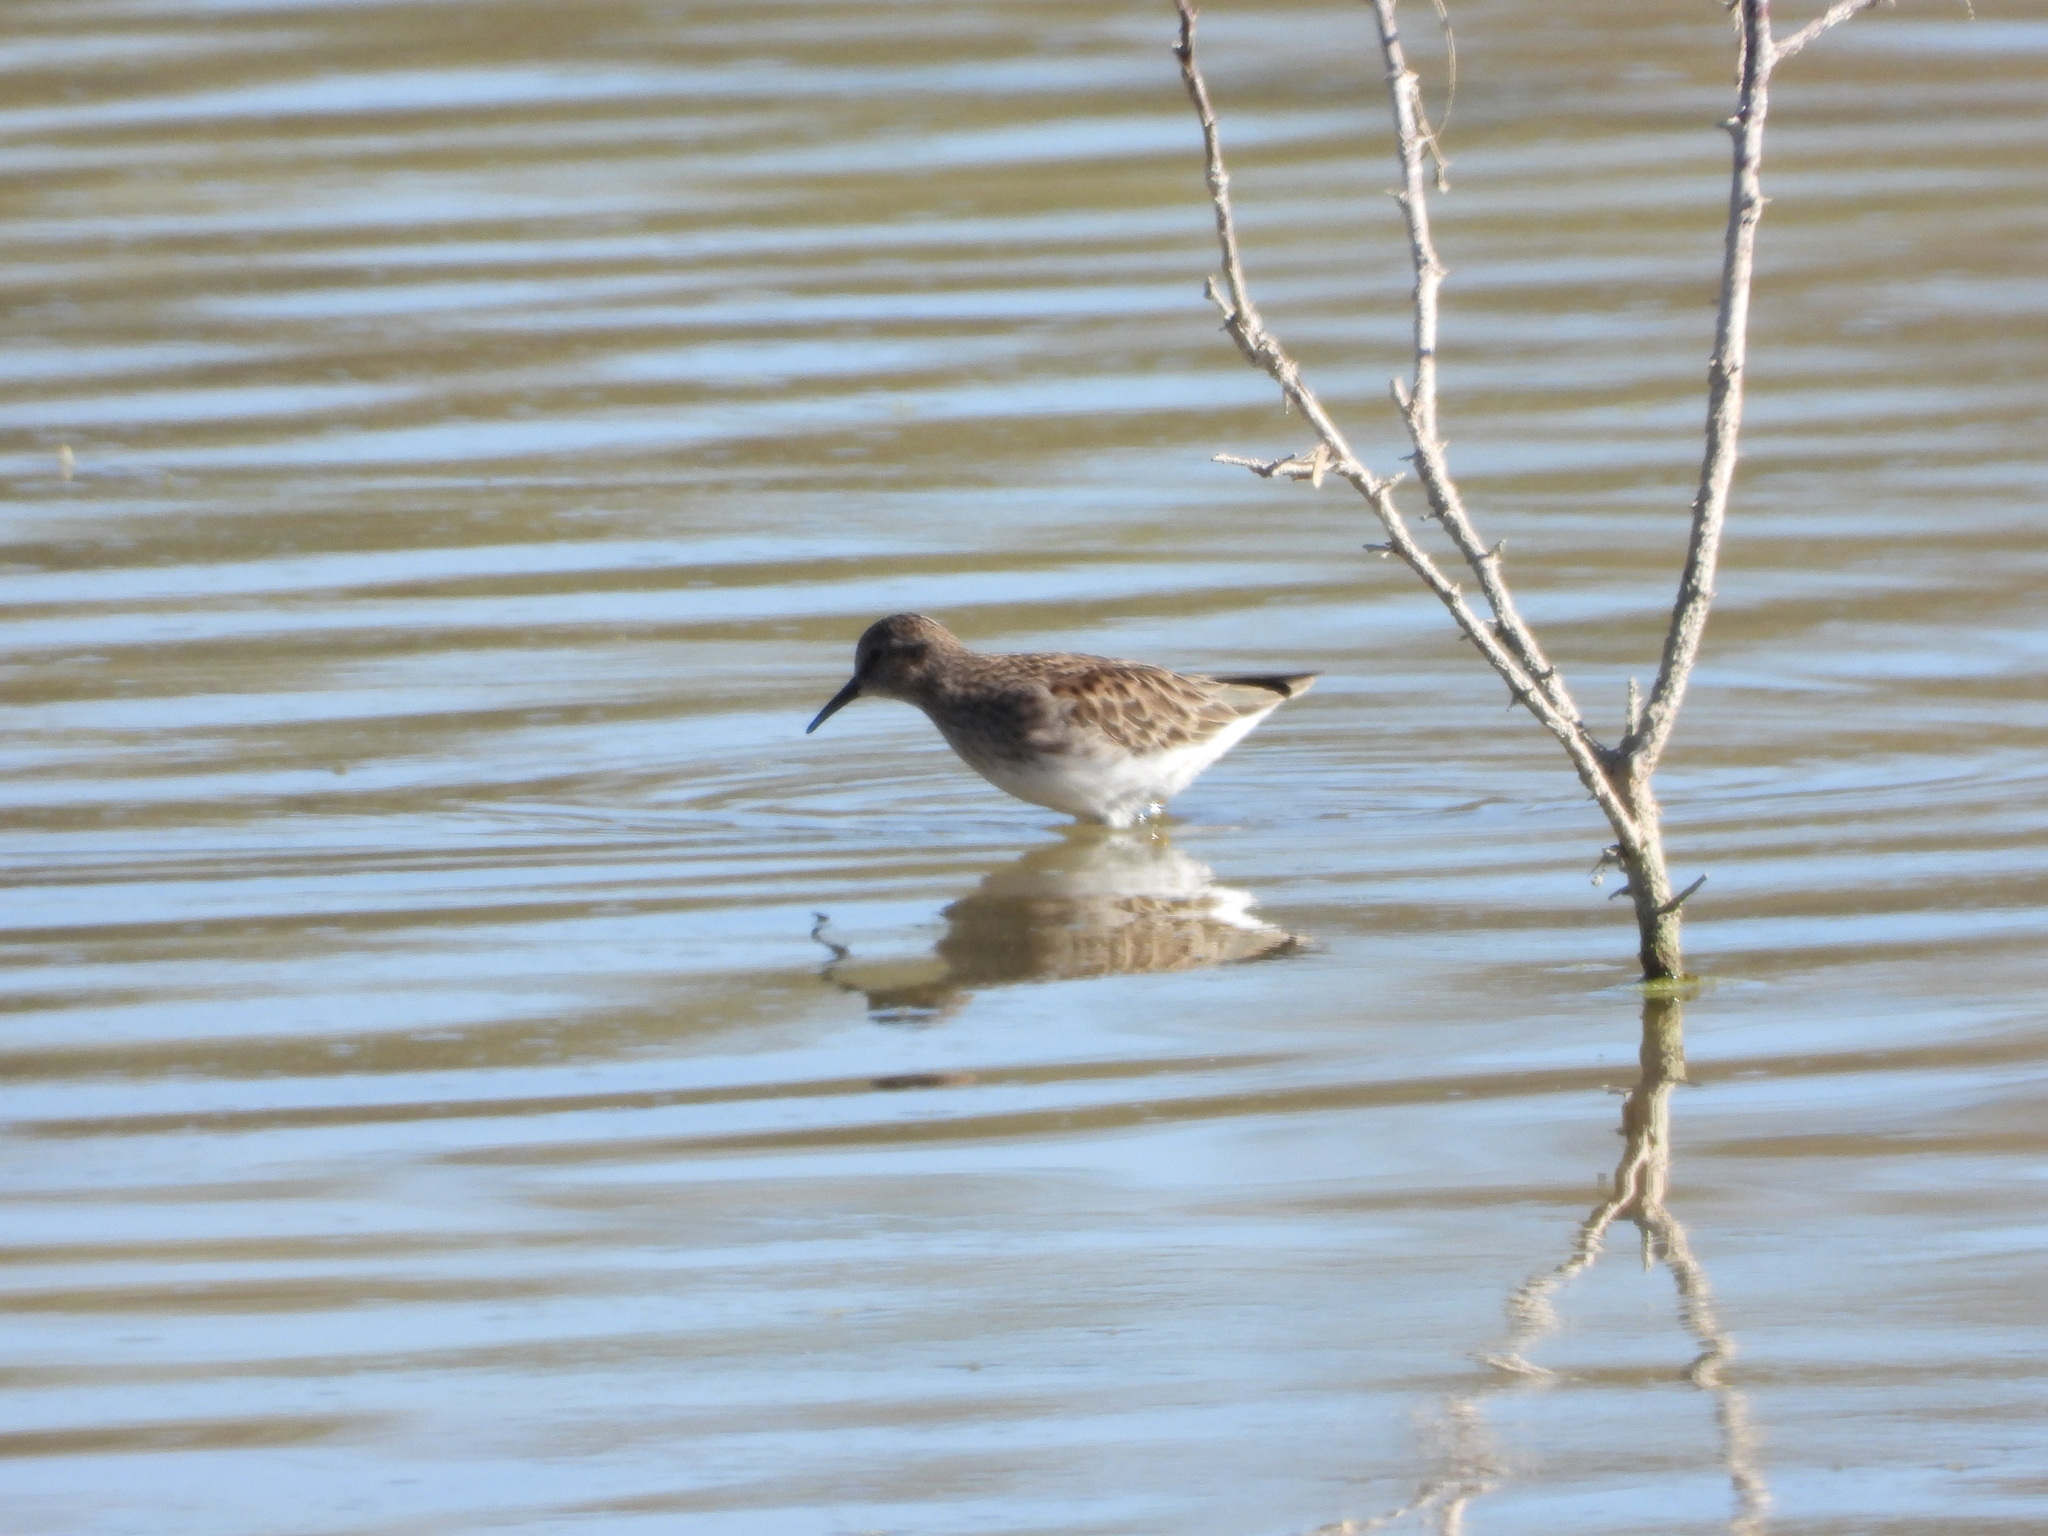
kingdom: Animalia
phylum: Chordata
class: Aves
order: Charadriiformes
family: Scolopacidae
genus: Calidris
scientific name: Calidris minutilla
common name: Least sandpiper
